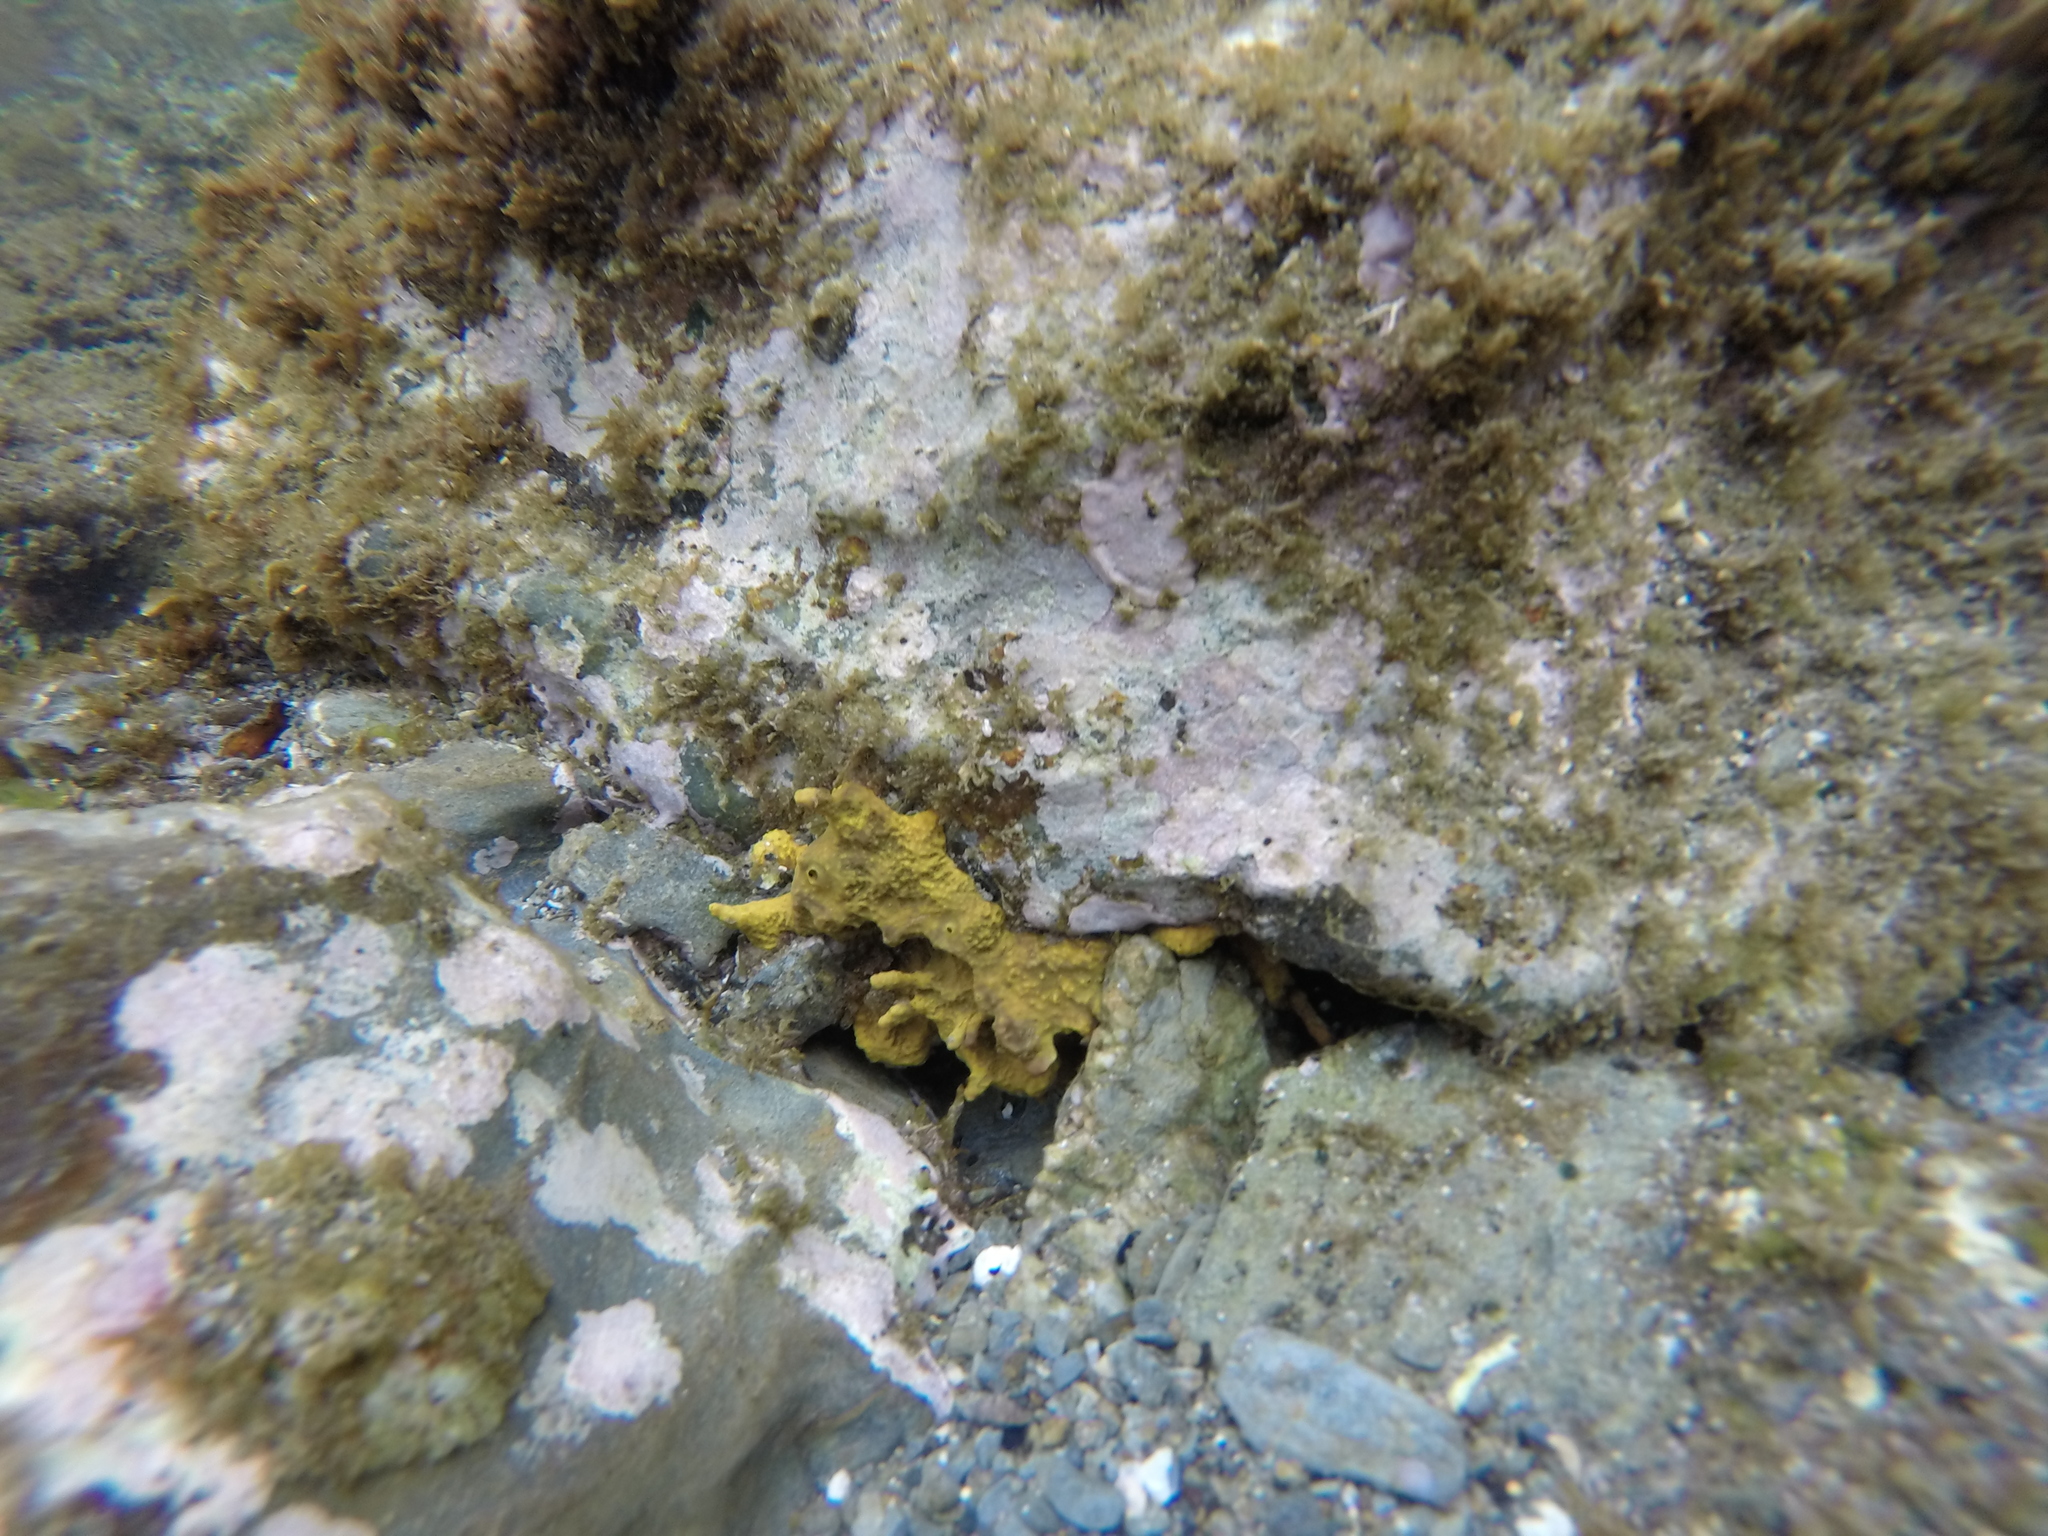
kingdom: Animalia
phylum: Porifera
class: Demospongiae
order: Verongiida
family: Aplysinidae
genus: Aplysina
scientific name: Aplysina aerophoba
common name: Aureate sponge
